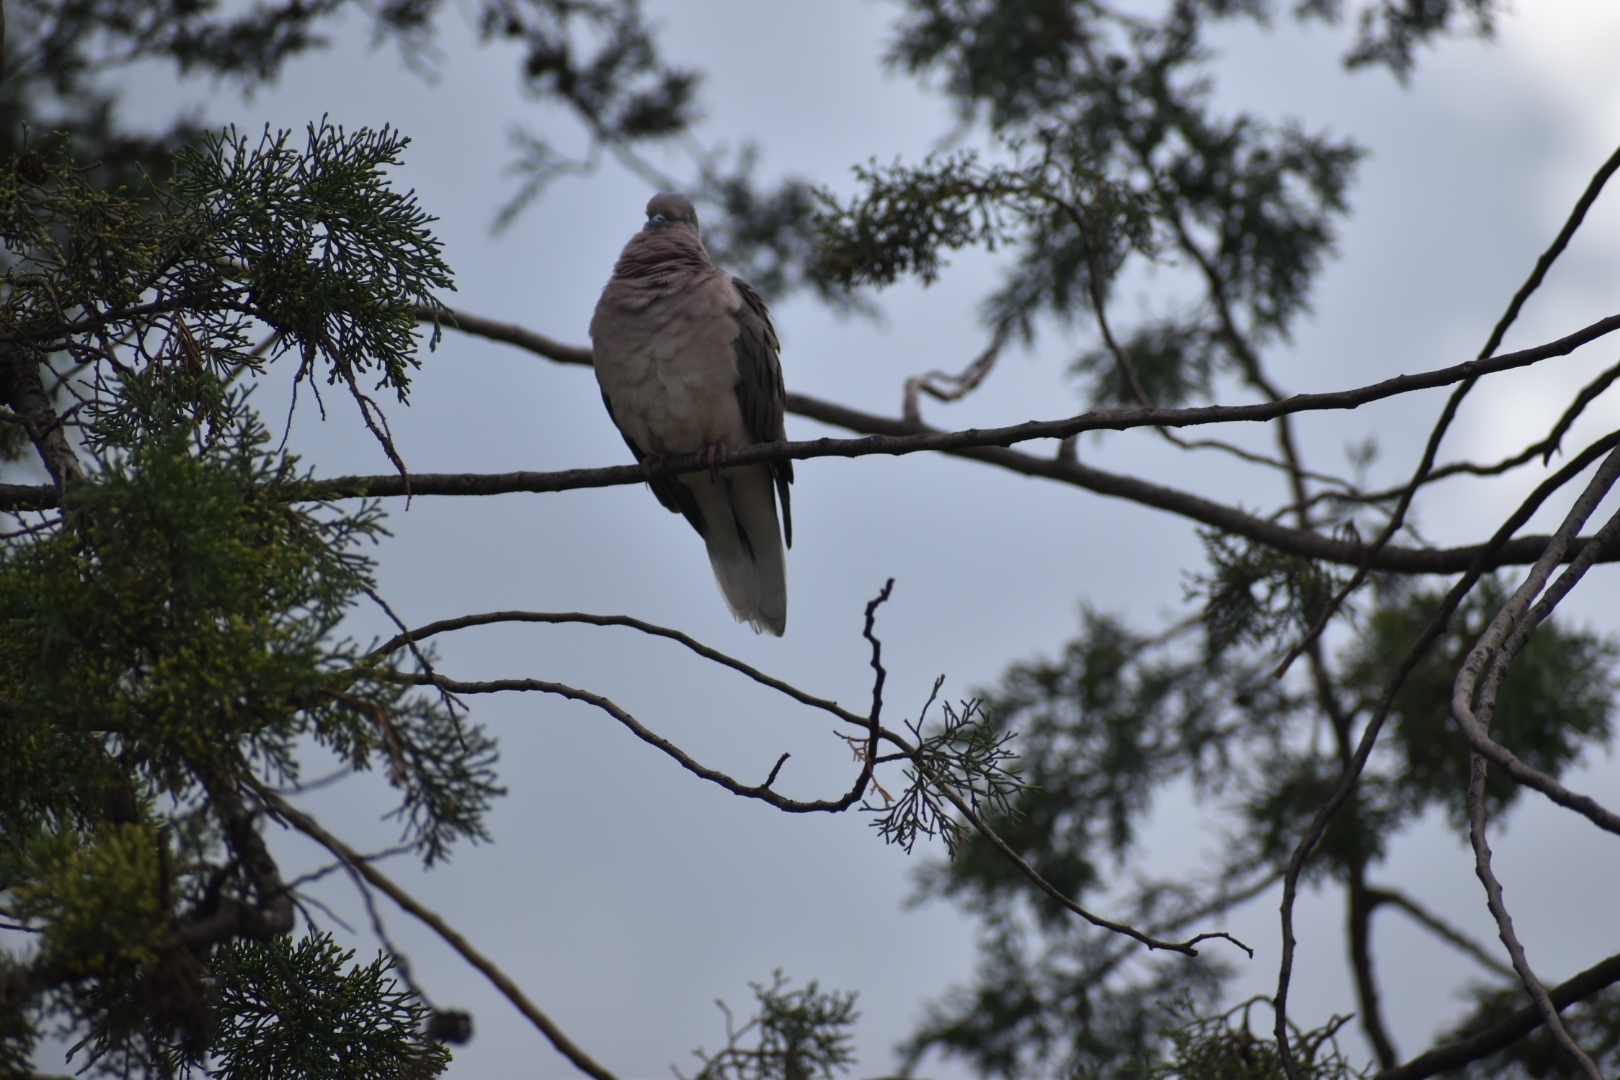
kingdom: Animalia
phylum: Chordata
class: Aves
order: Columbiformes
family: Columbidae
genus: Zenaida
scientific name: Zenaida auriculata
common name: Eared dove
